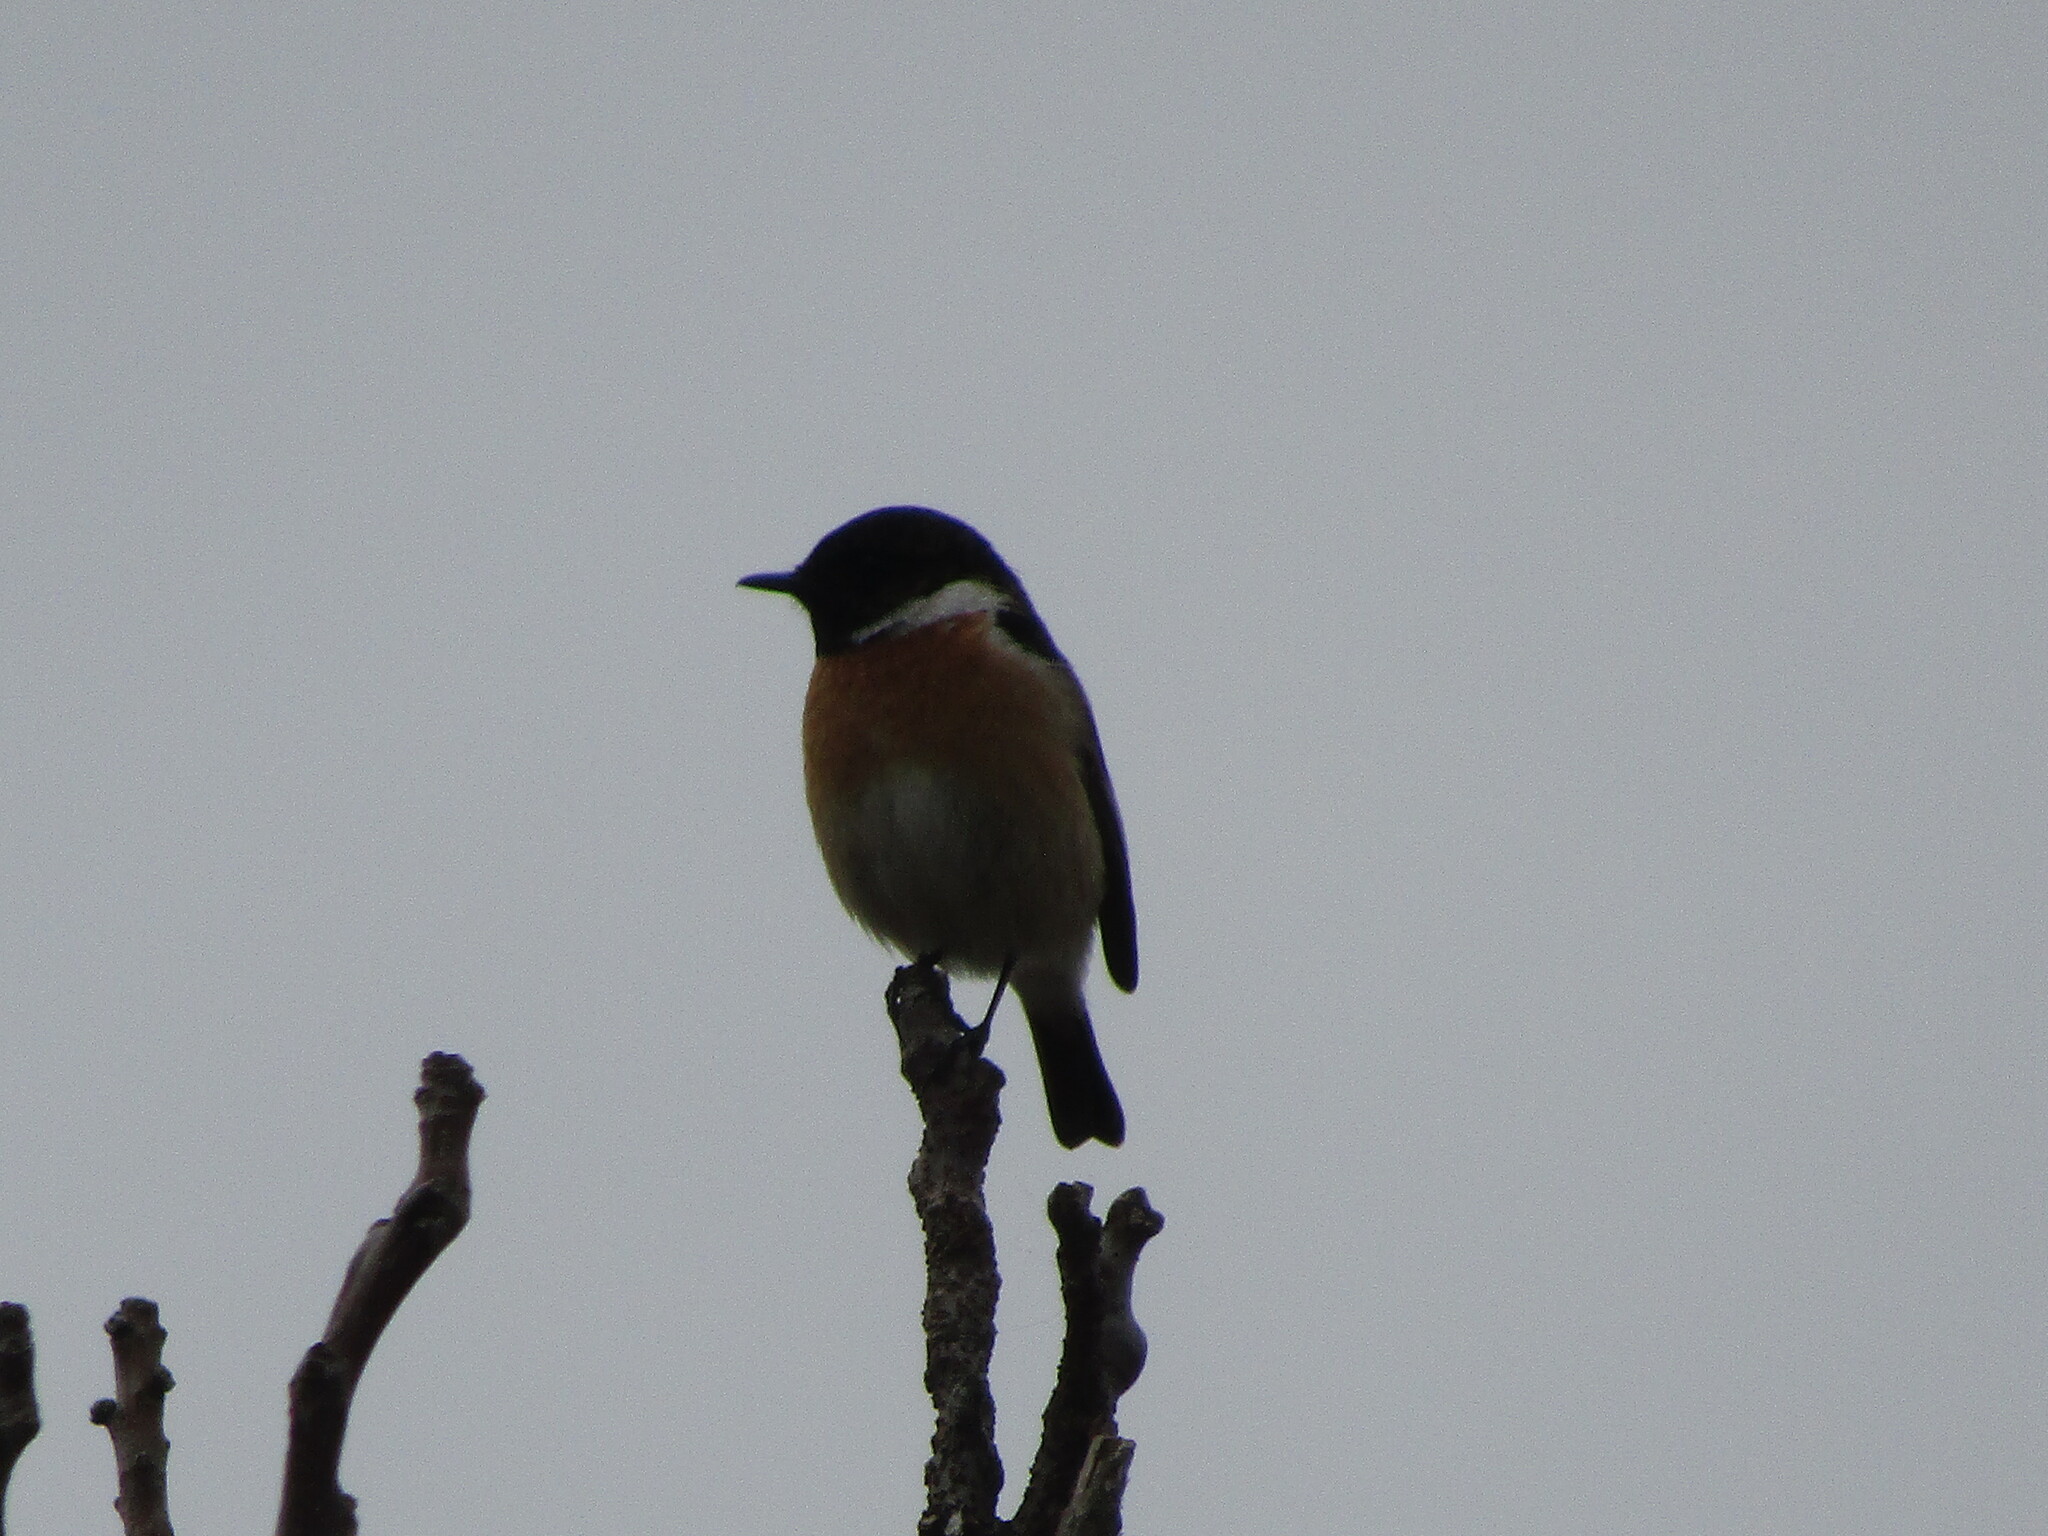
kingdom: Animalia
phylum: Chordata
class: Aves
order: Passeriformes
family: Muscicapidae
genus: Saxicola
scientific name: Saxicola rubicola
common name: European stonechat
